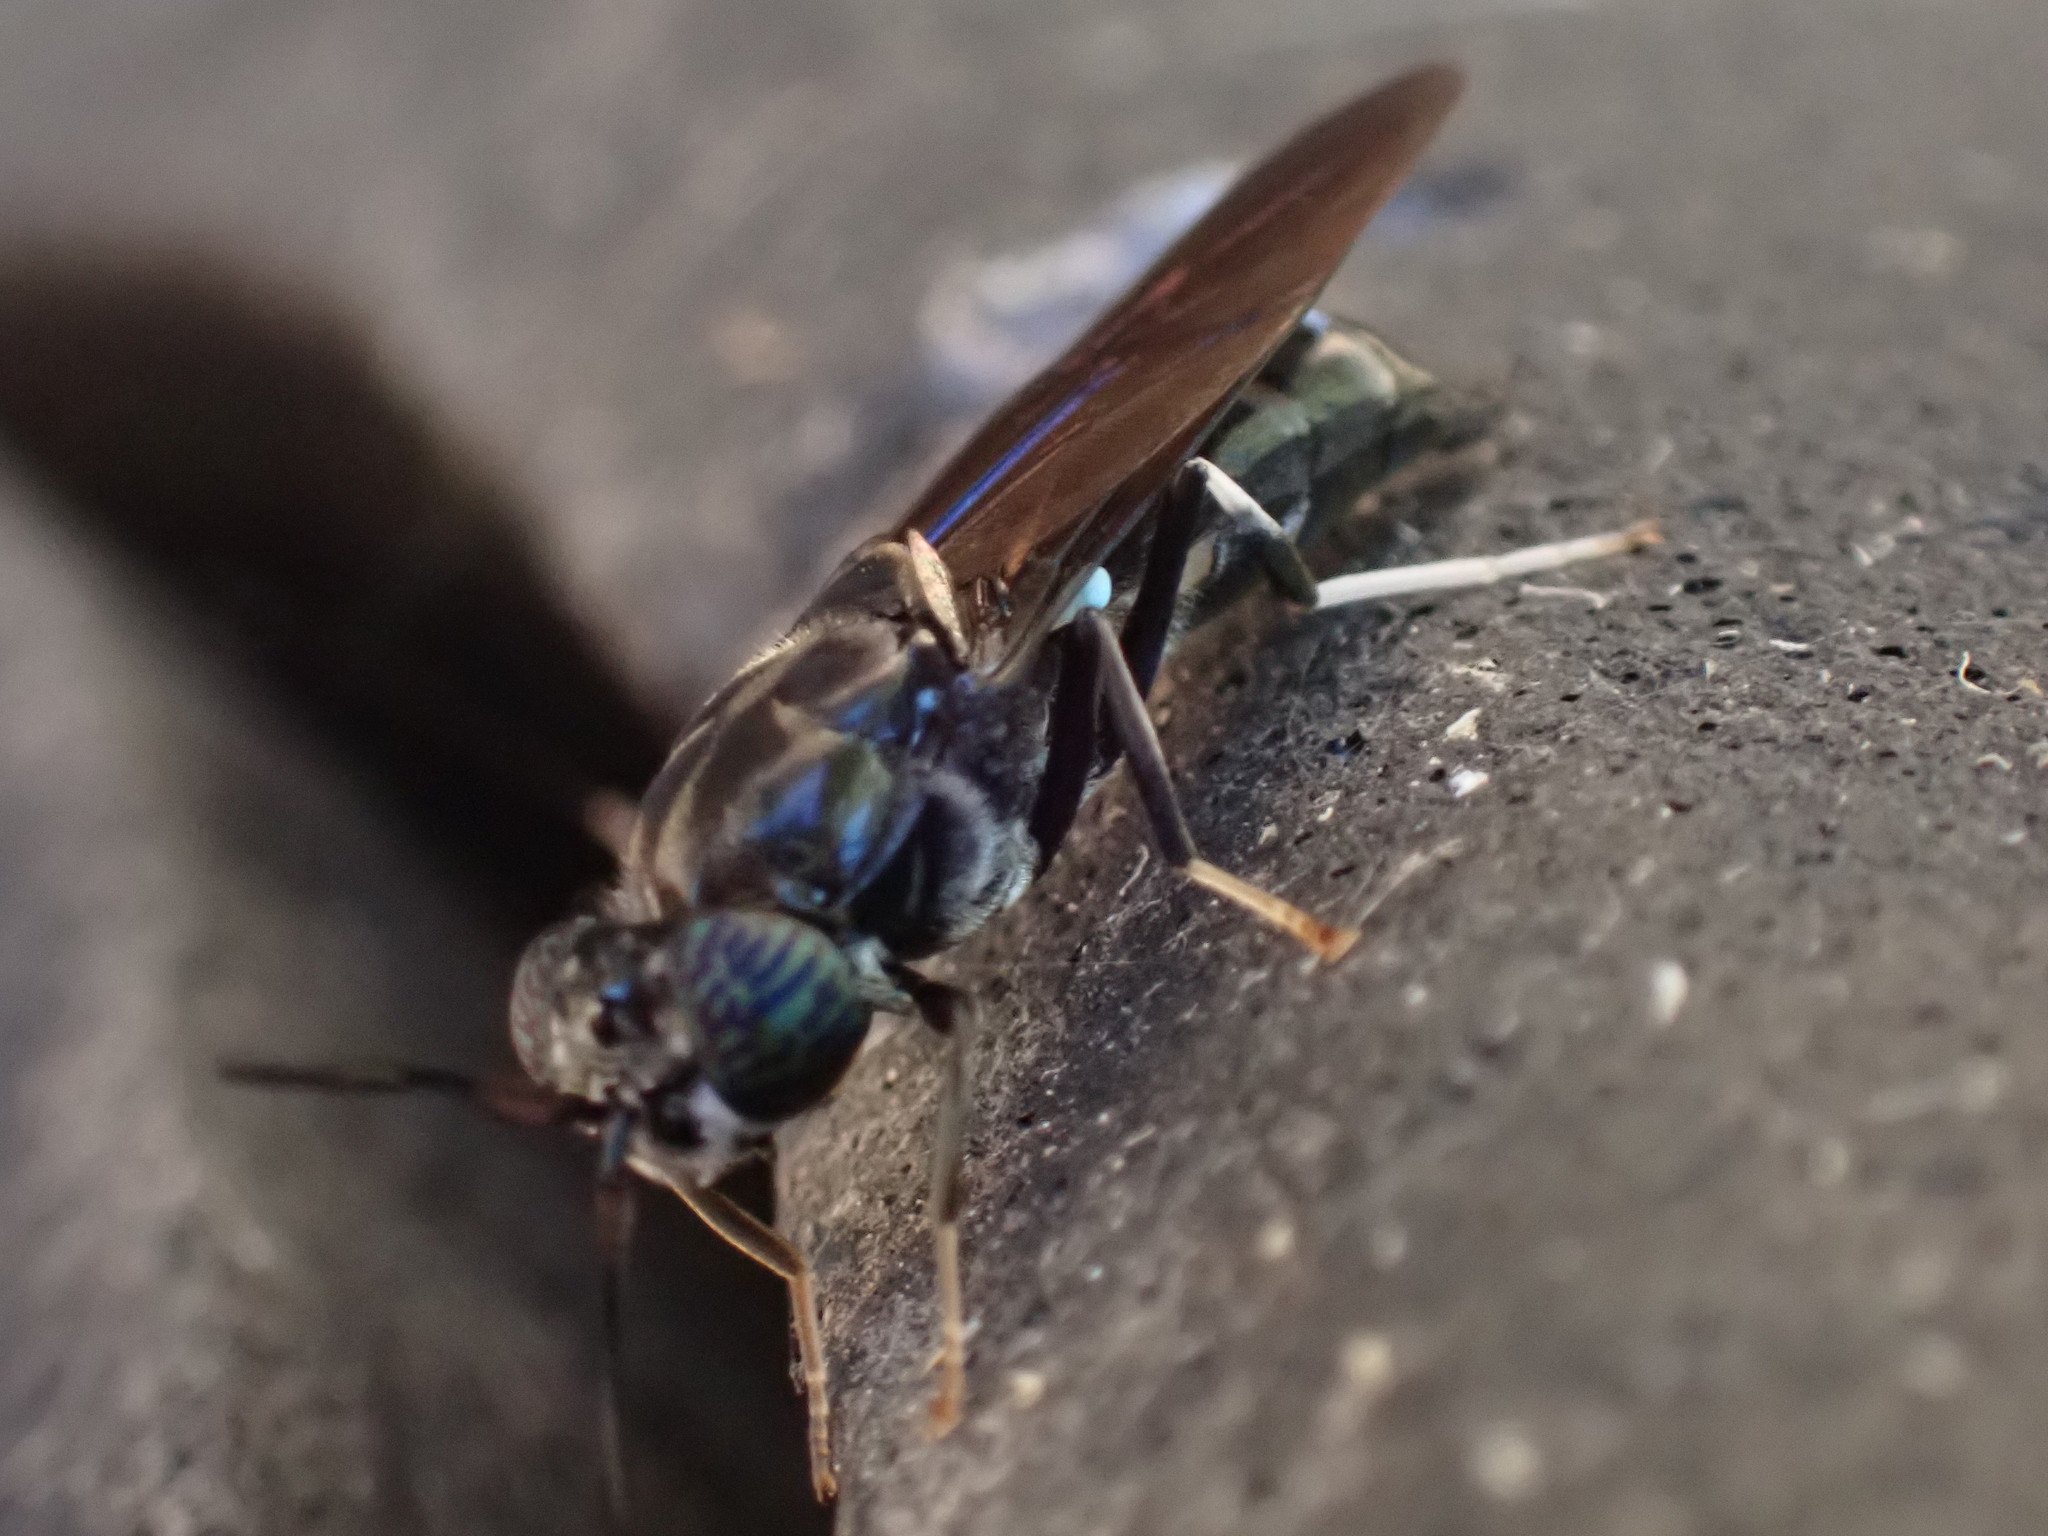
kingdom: Animalia
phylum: Arthropoda
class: Insecta
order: Diptera
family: Stratiomyidae
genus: Hermetia
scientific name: Hermetia illucens
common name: Black soldier fly
